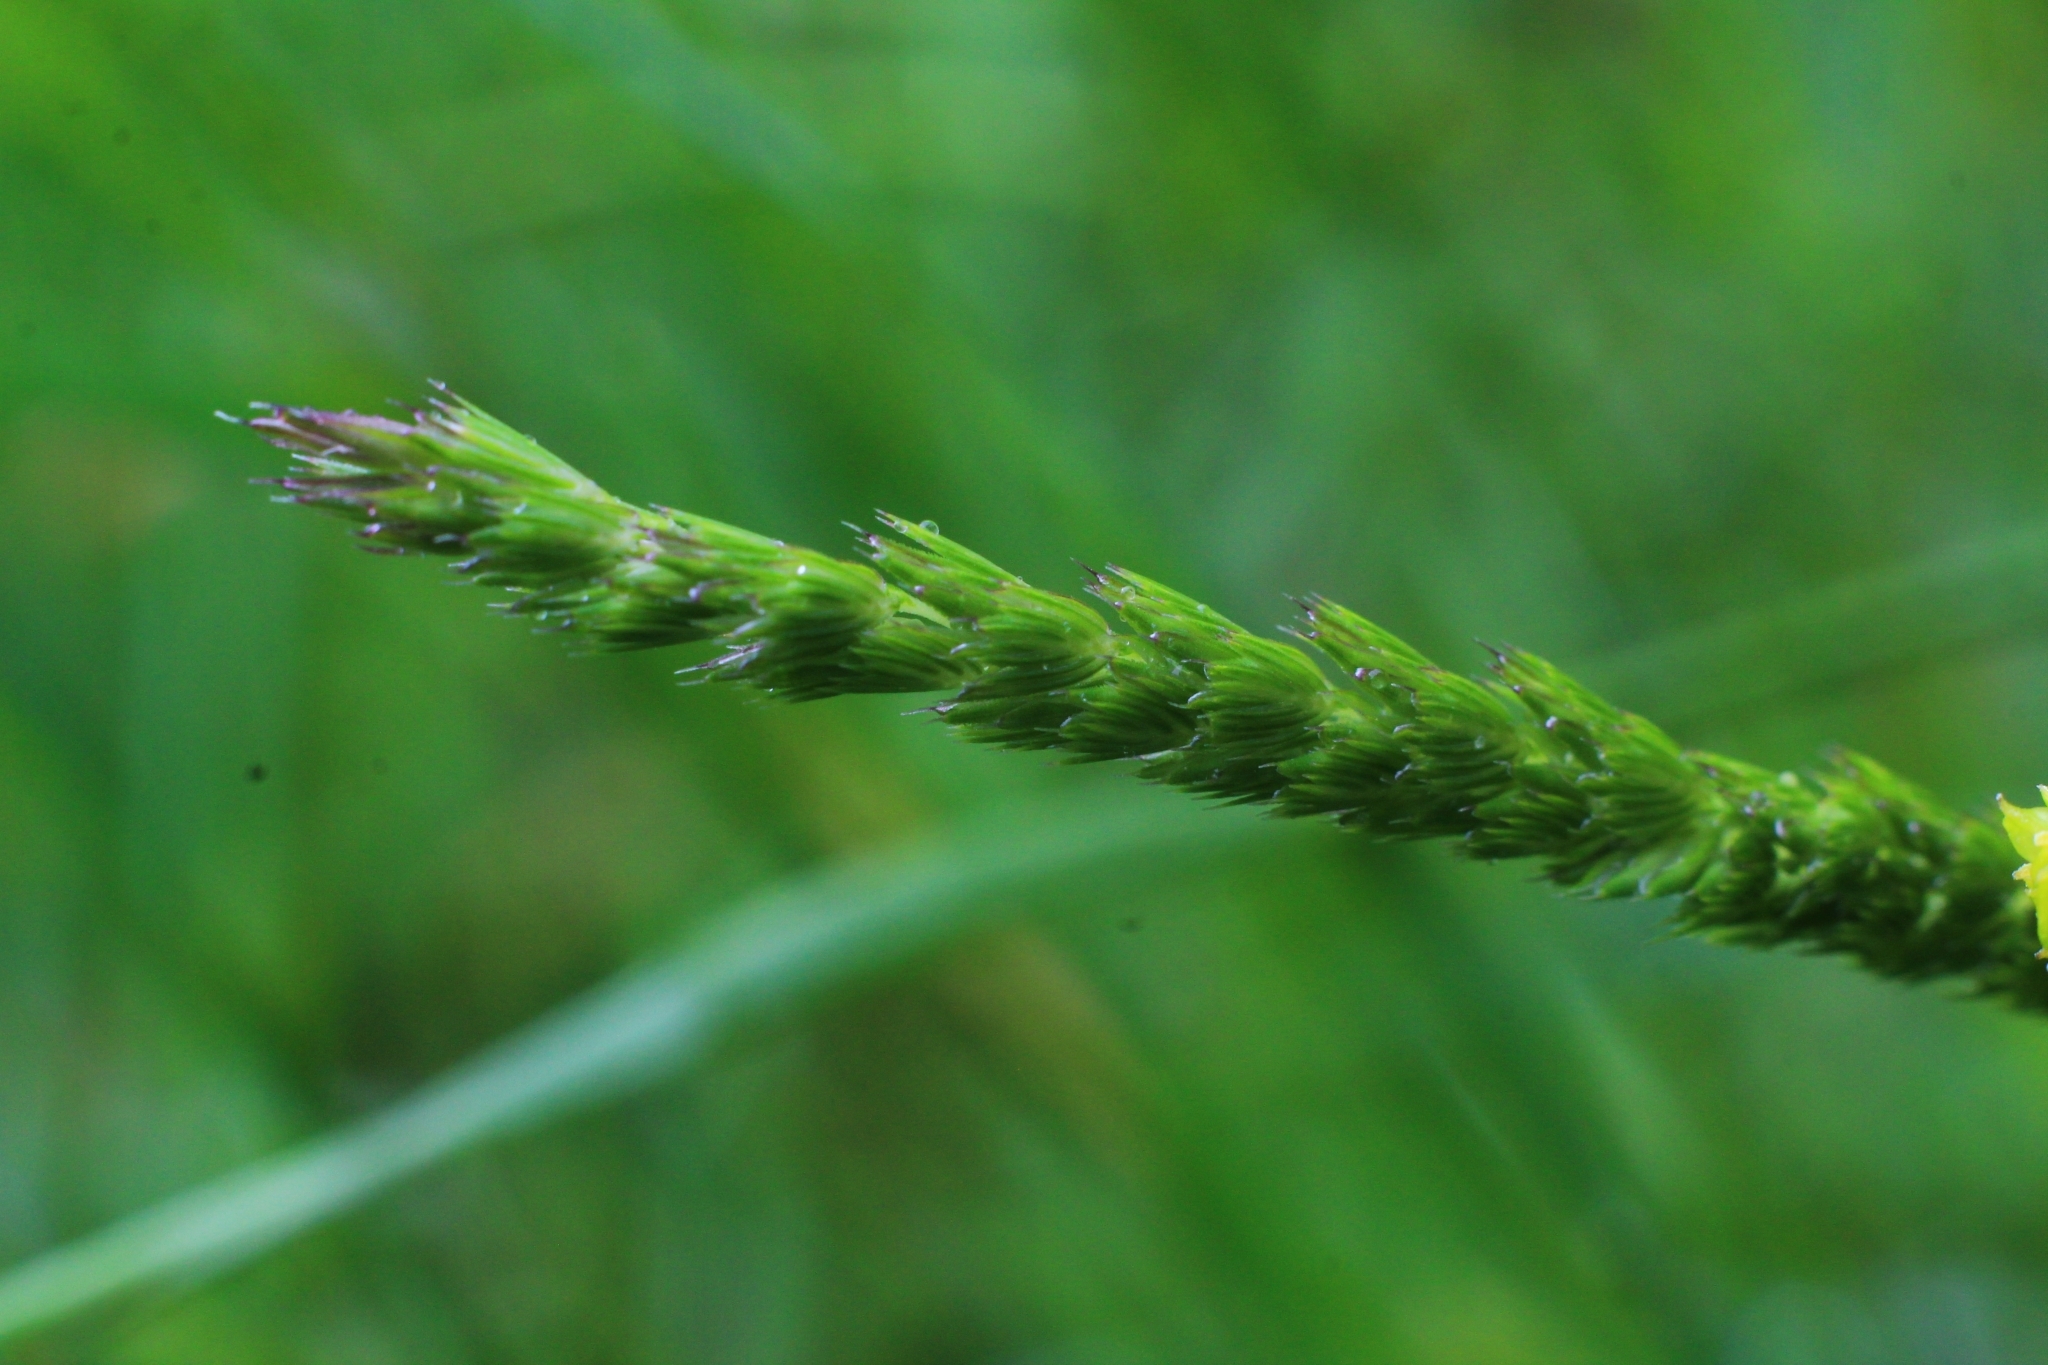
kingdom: Plantae
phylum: Tracheophyta
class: Liliopsida
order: Poales
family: Poaceae
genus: Cynosurus
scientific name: Cynosurus cristatus
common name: Crested dog's-tail
